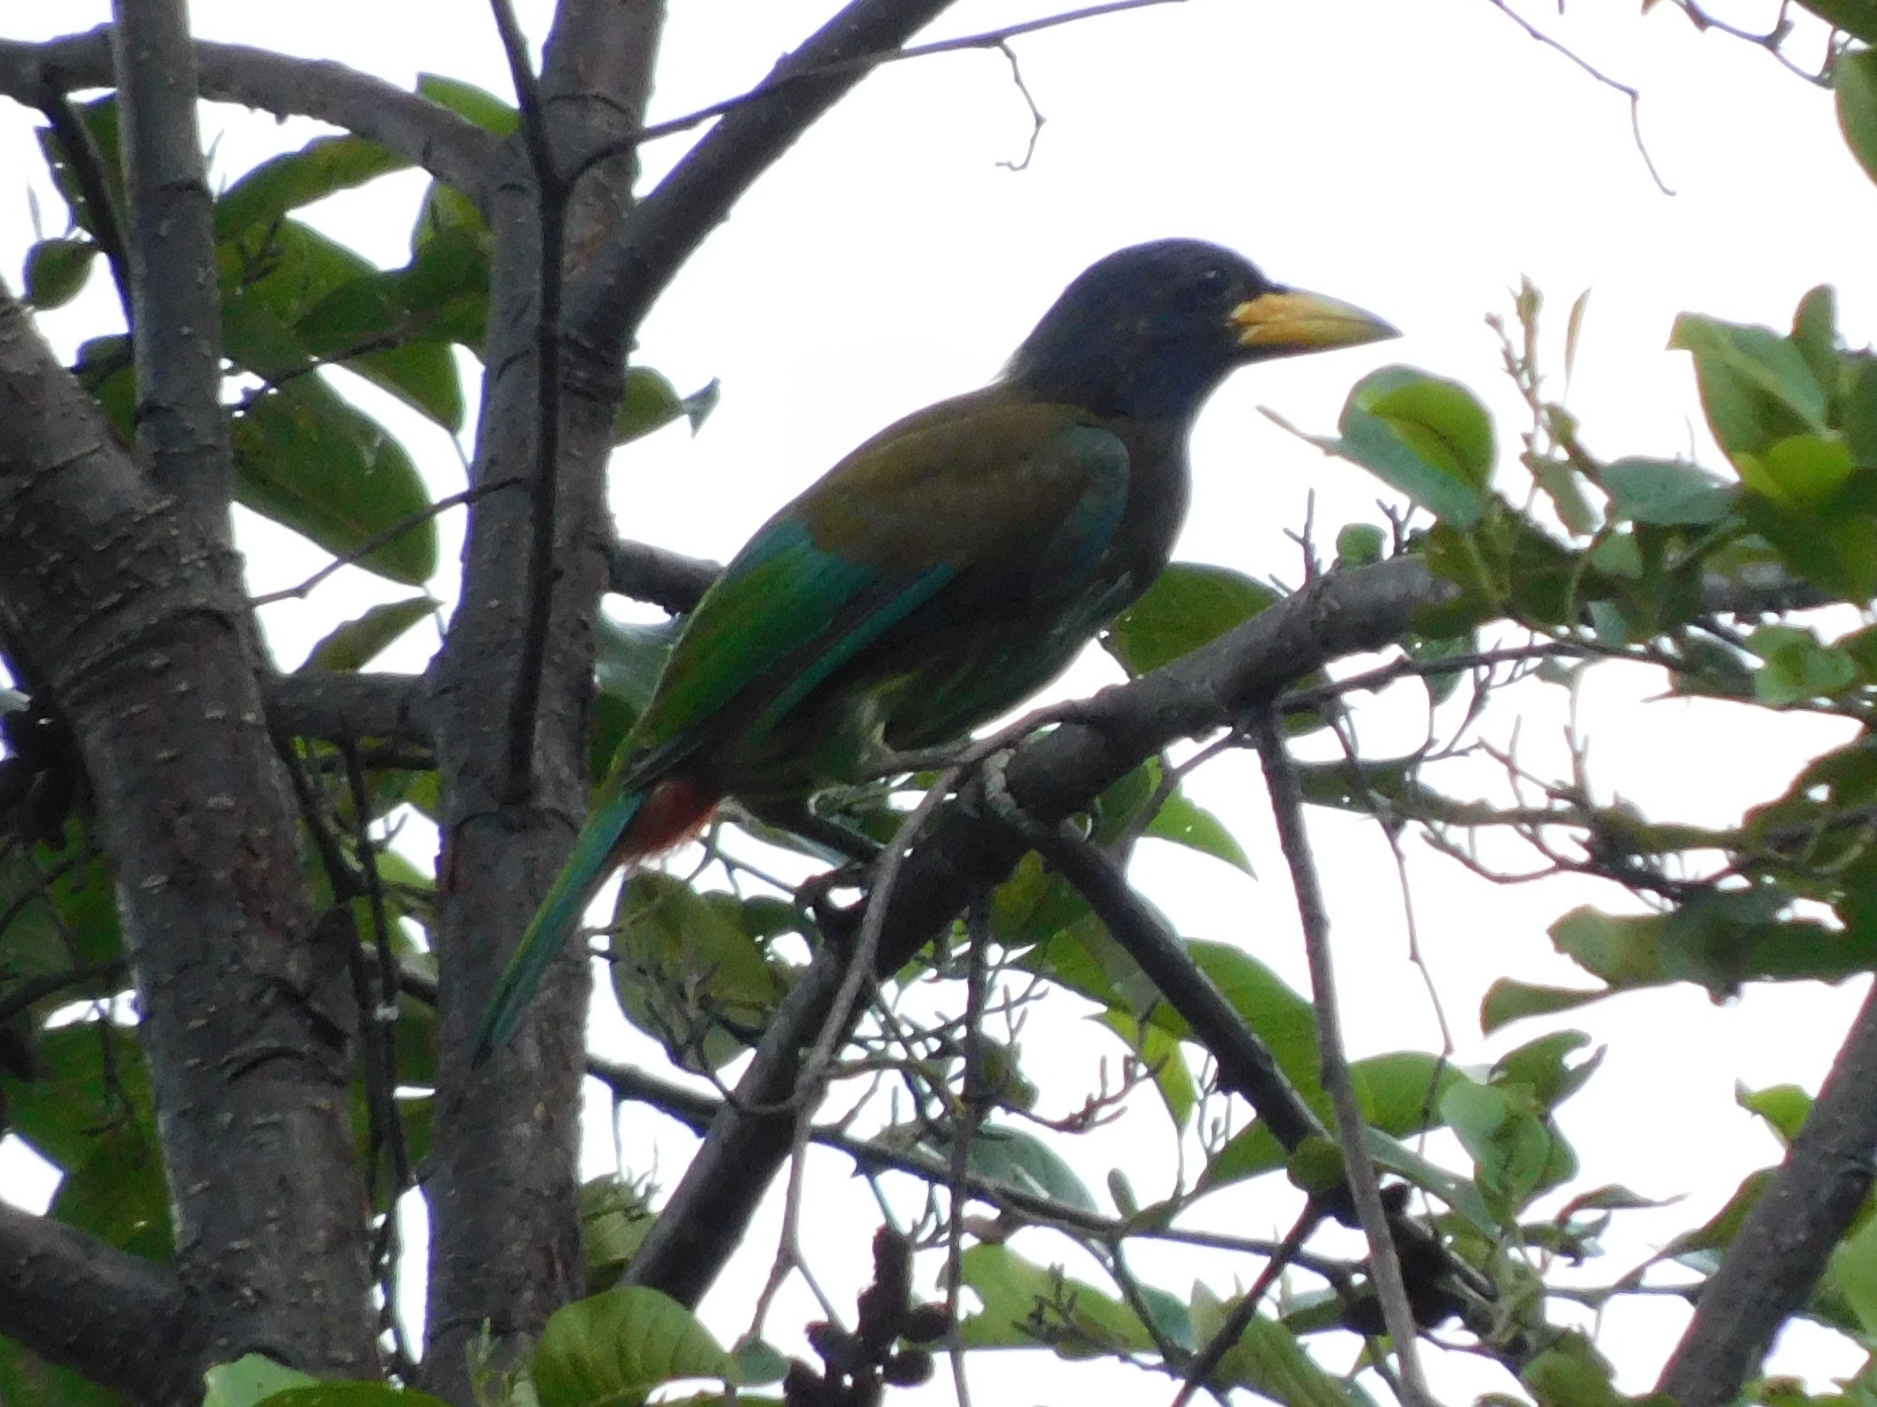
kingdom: Animalia
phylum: Chordata
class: Aves
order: Piciformes
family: Megalaimidae
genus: Psilopogon
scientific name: Psilopogon virens
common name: Great barbet
